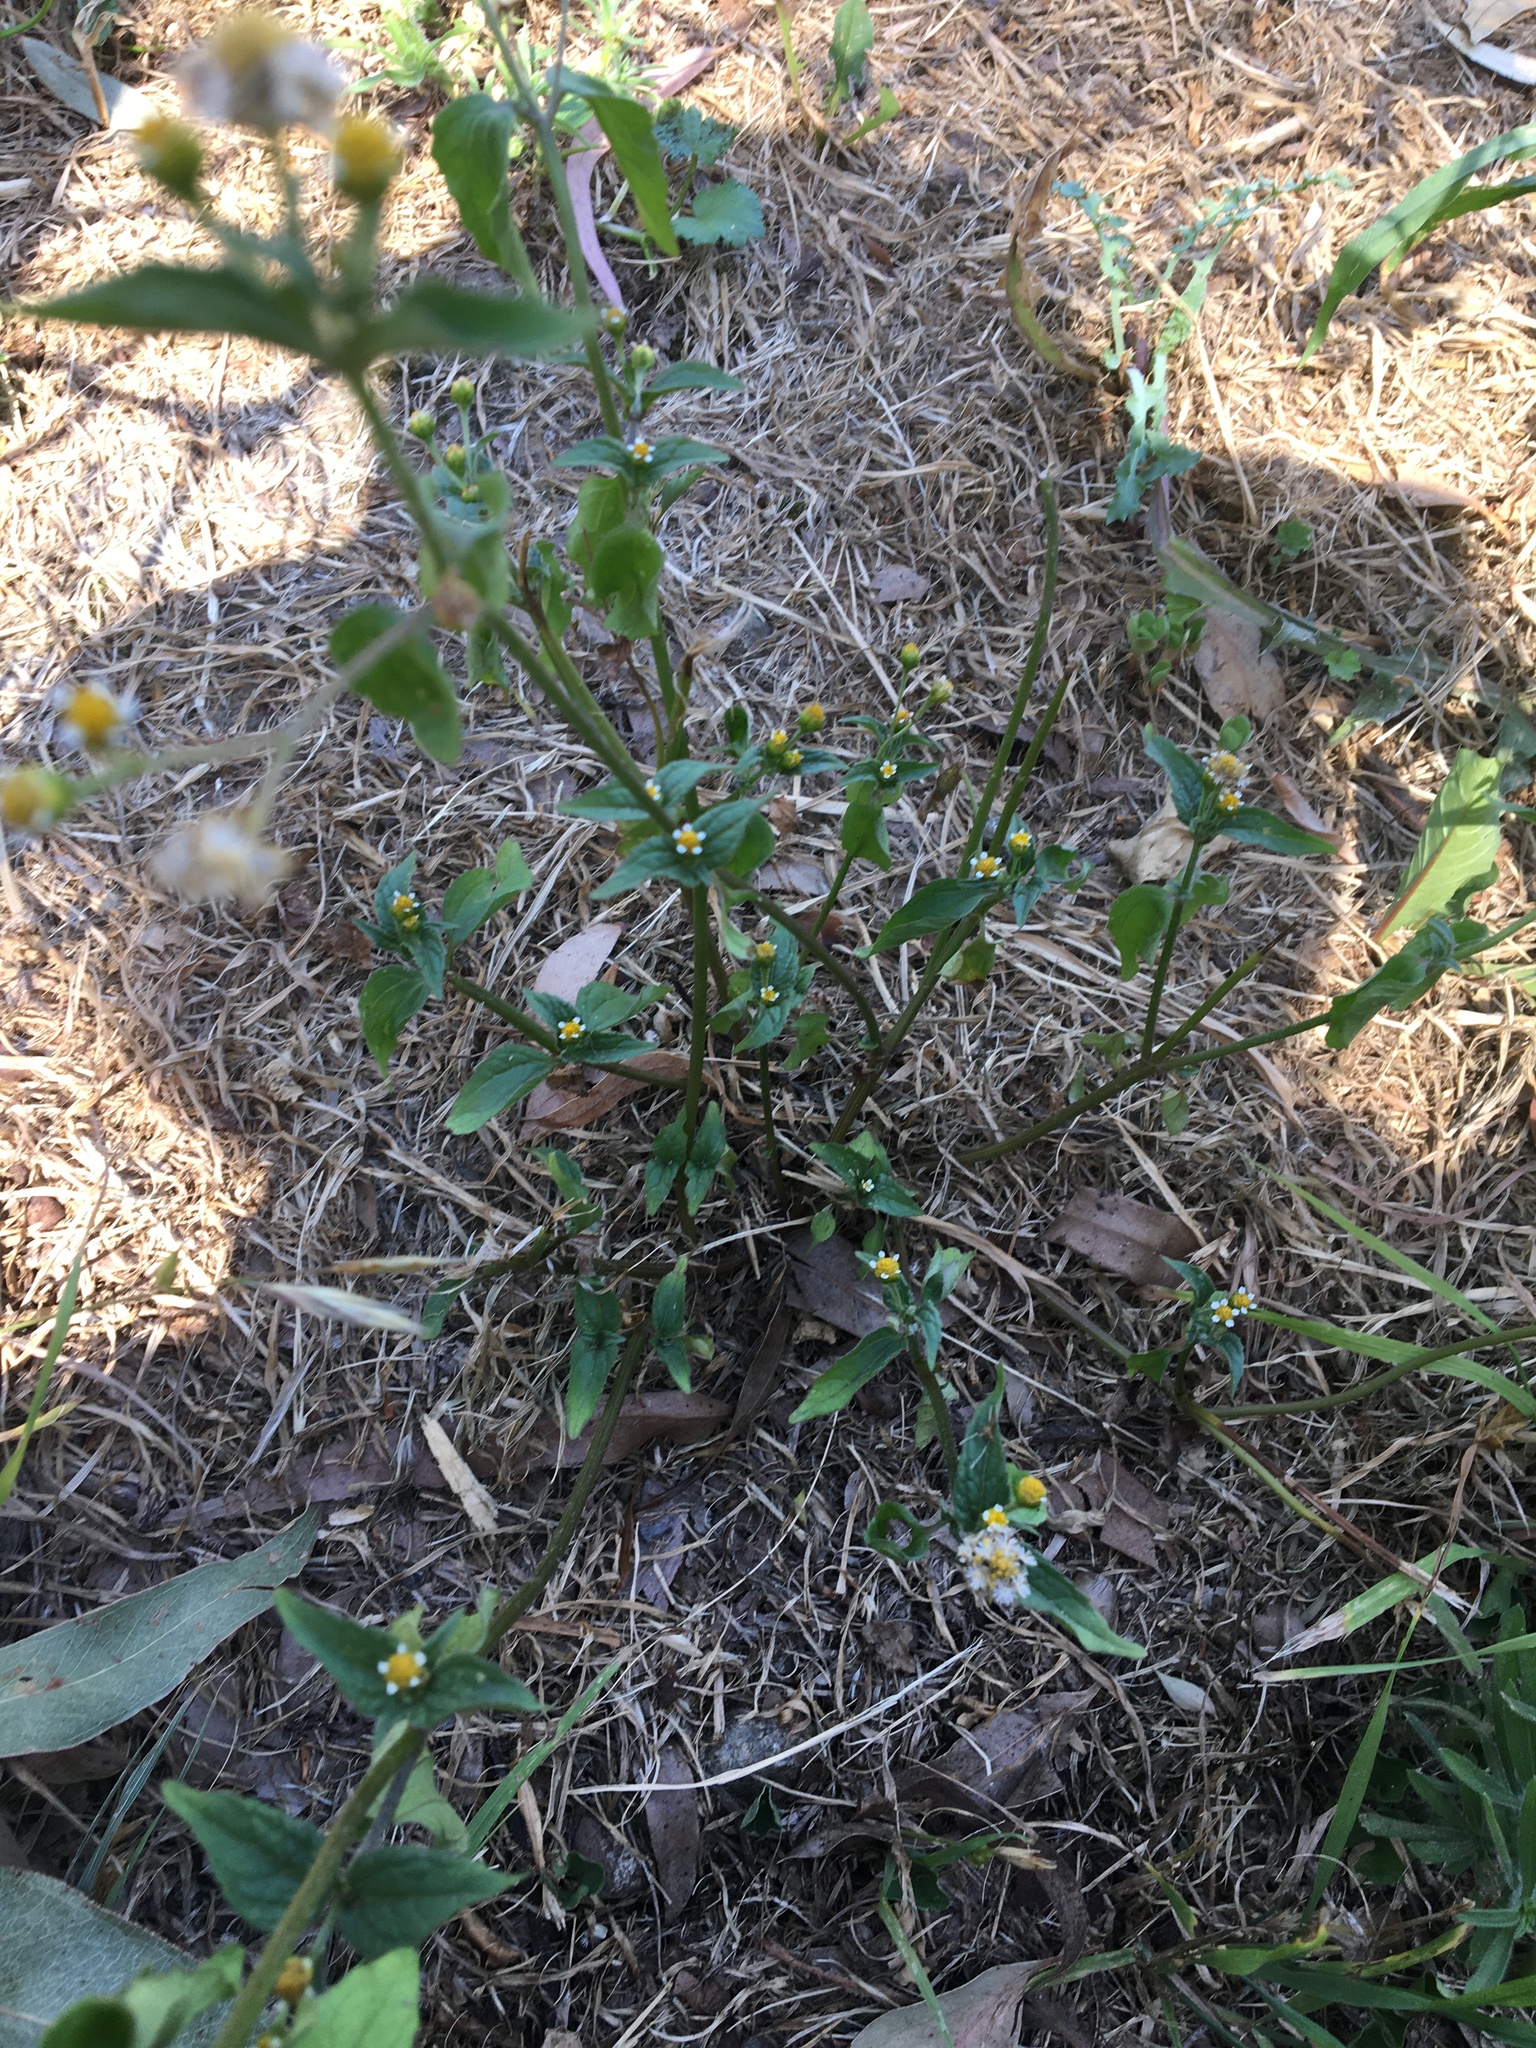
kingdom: Plantae
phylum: Tracheophyta
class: Magnoliopsida
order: Asterales
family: Asteraceae
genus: Galinsoga
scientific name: Galinsoga parviflora
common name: Gallant soldier
